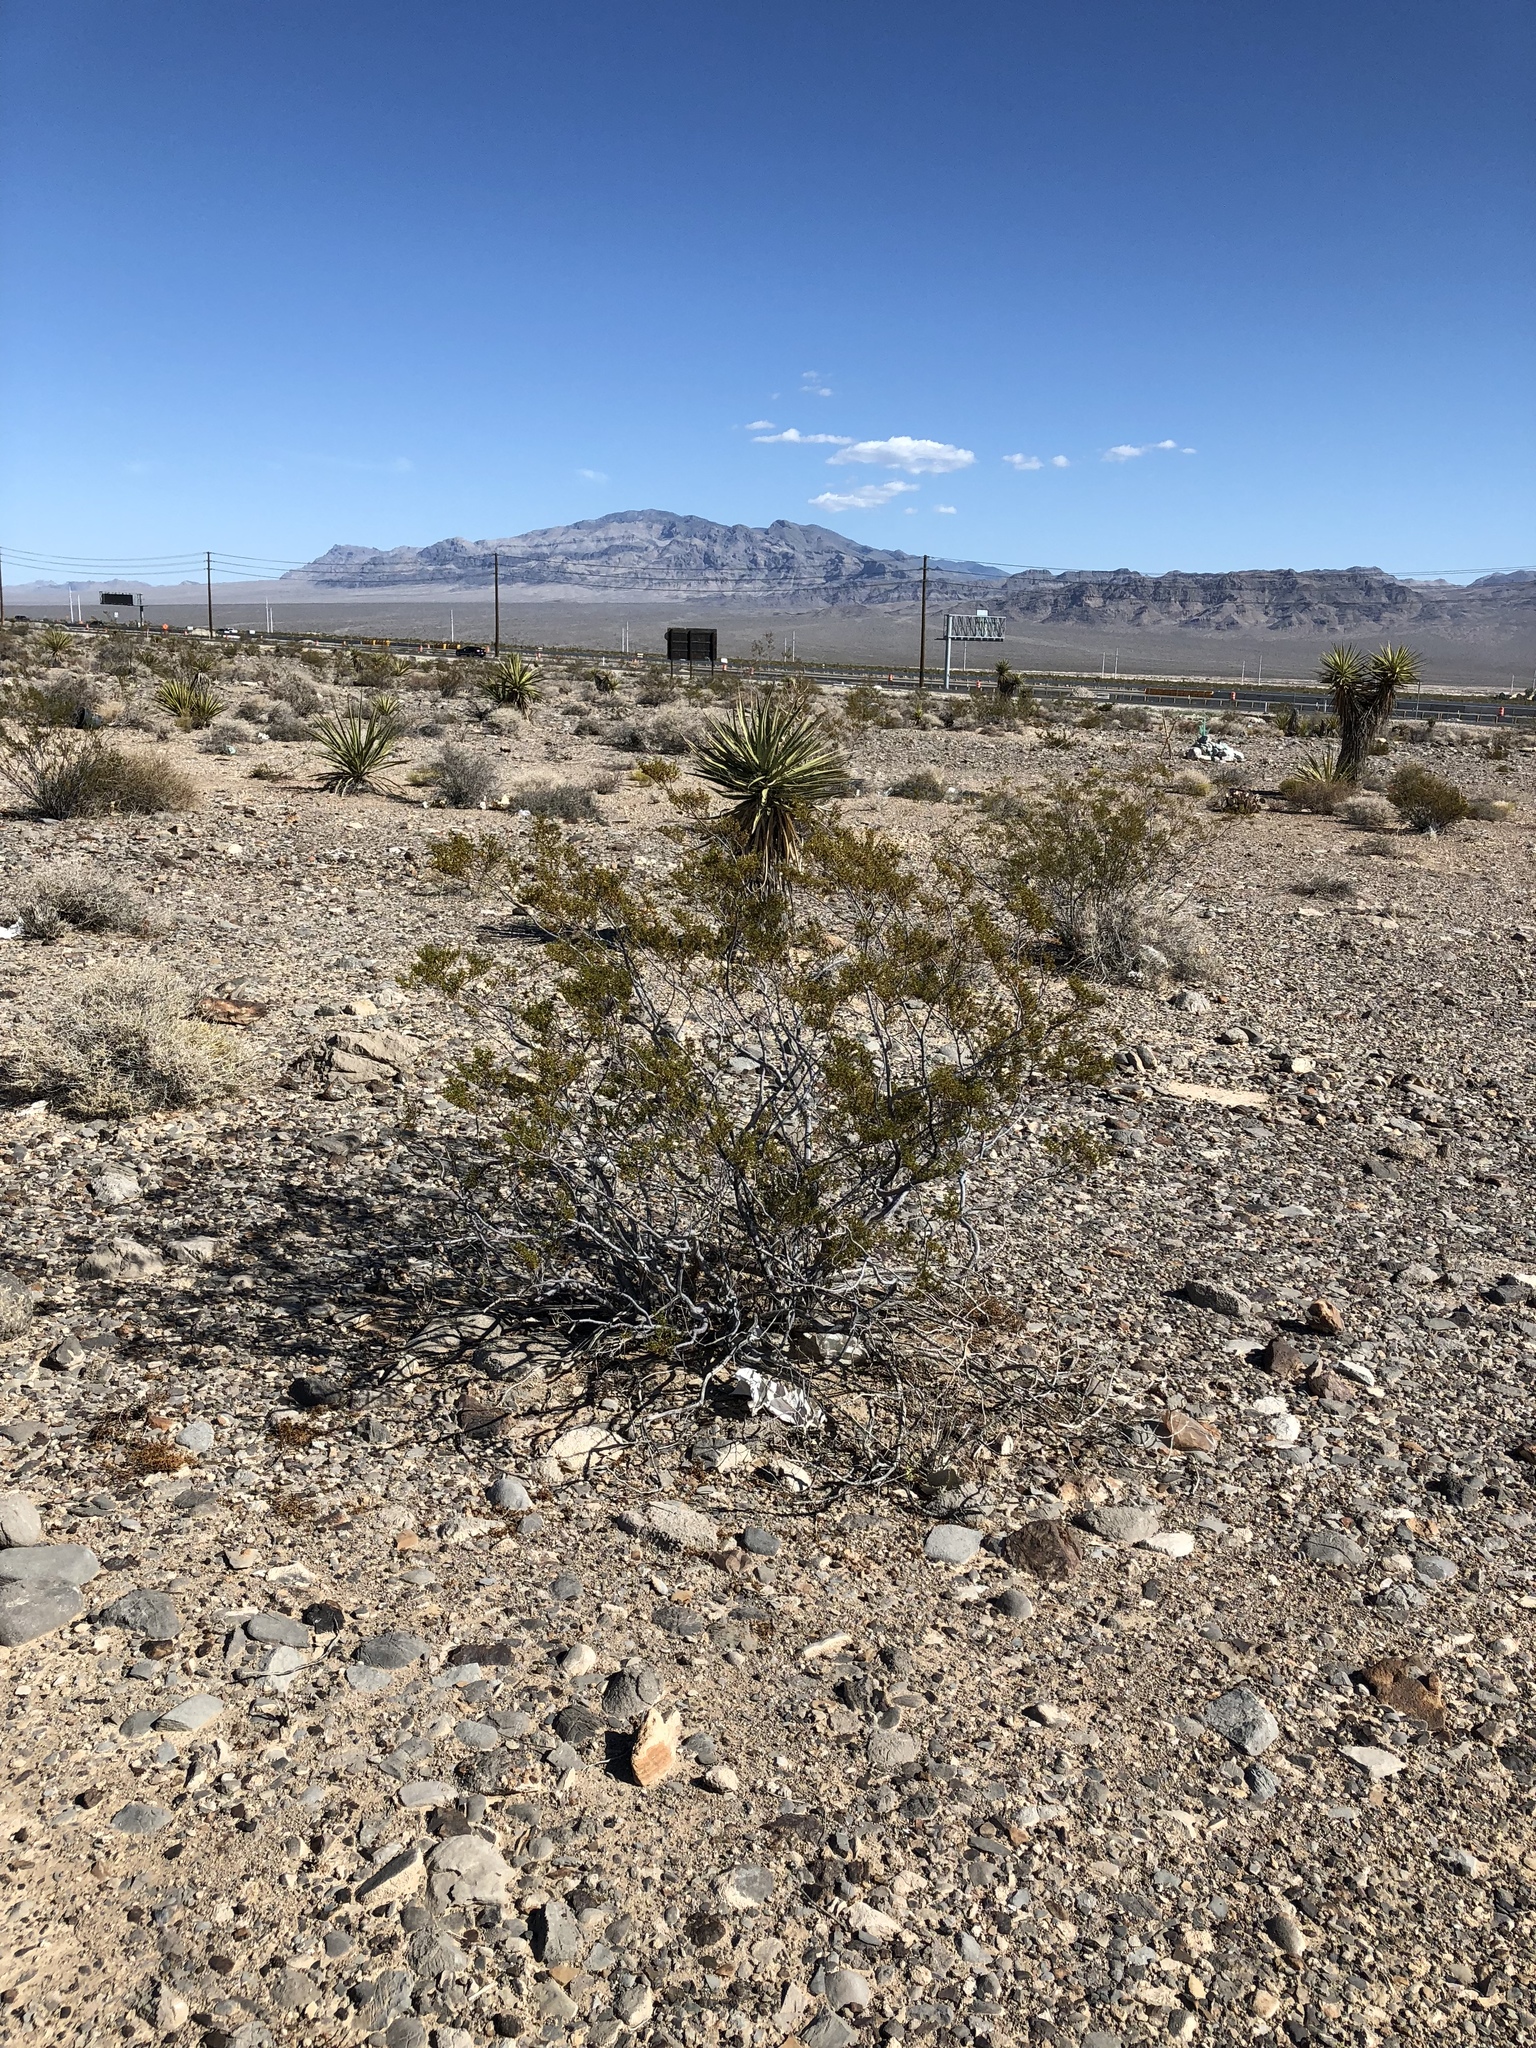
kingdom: Plantae
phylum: Tracheophyta
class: Magnoliopsida
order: Zygophyllales
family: Zygophyllaceae
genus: Larrea
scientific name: Larrea tridentata
